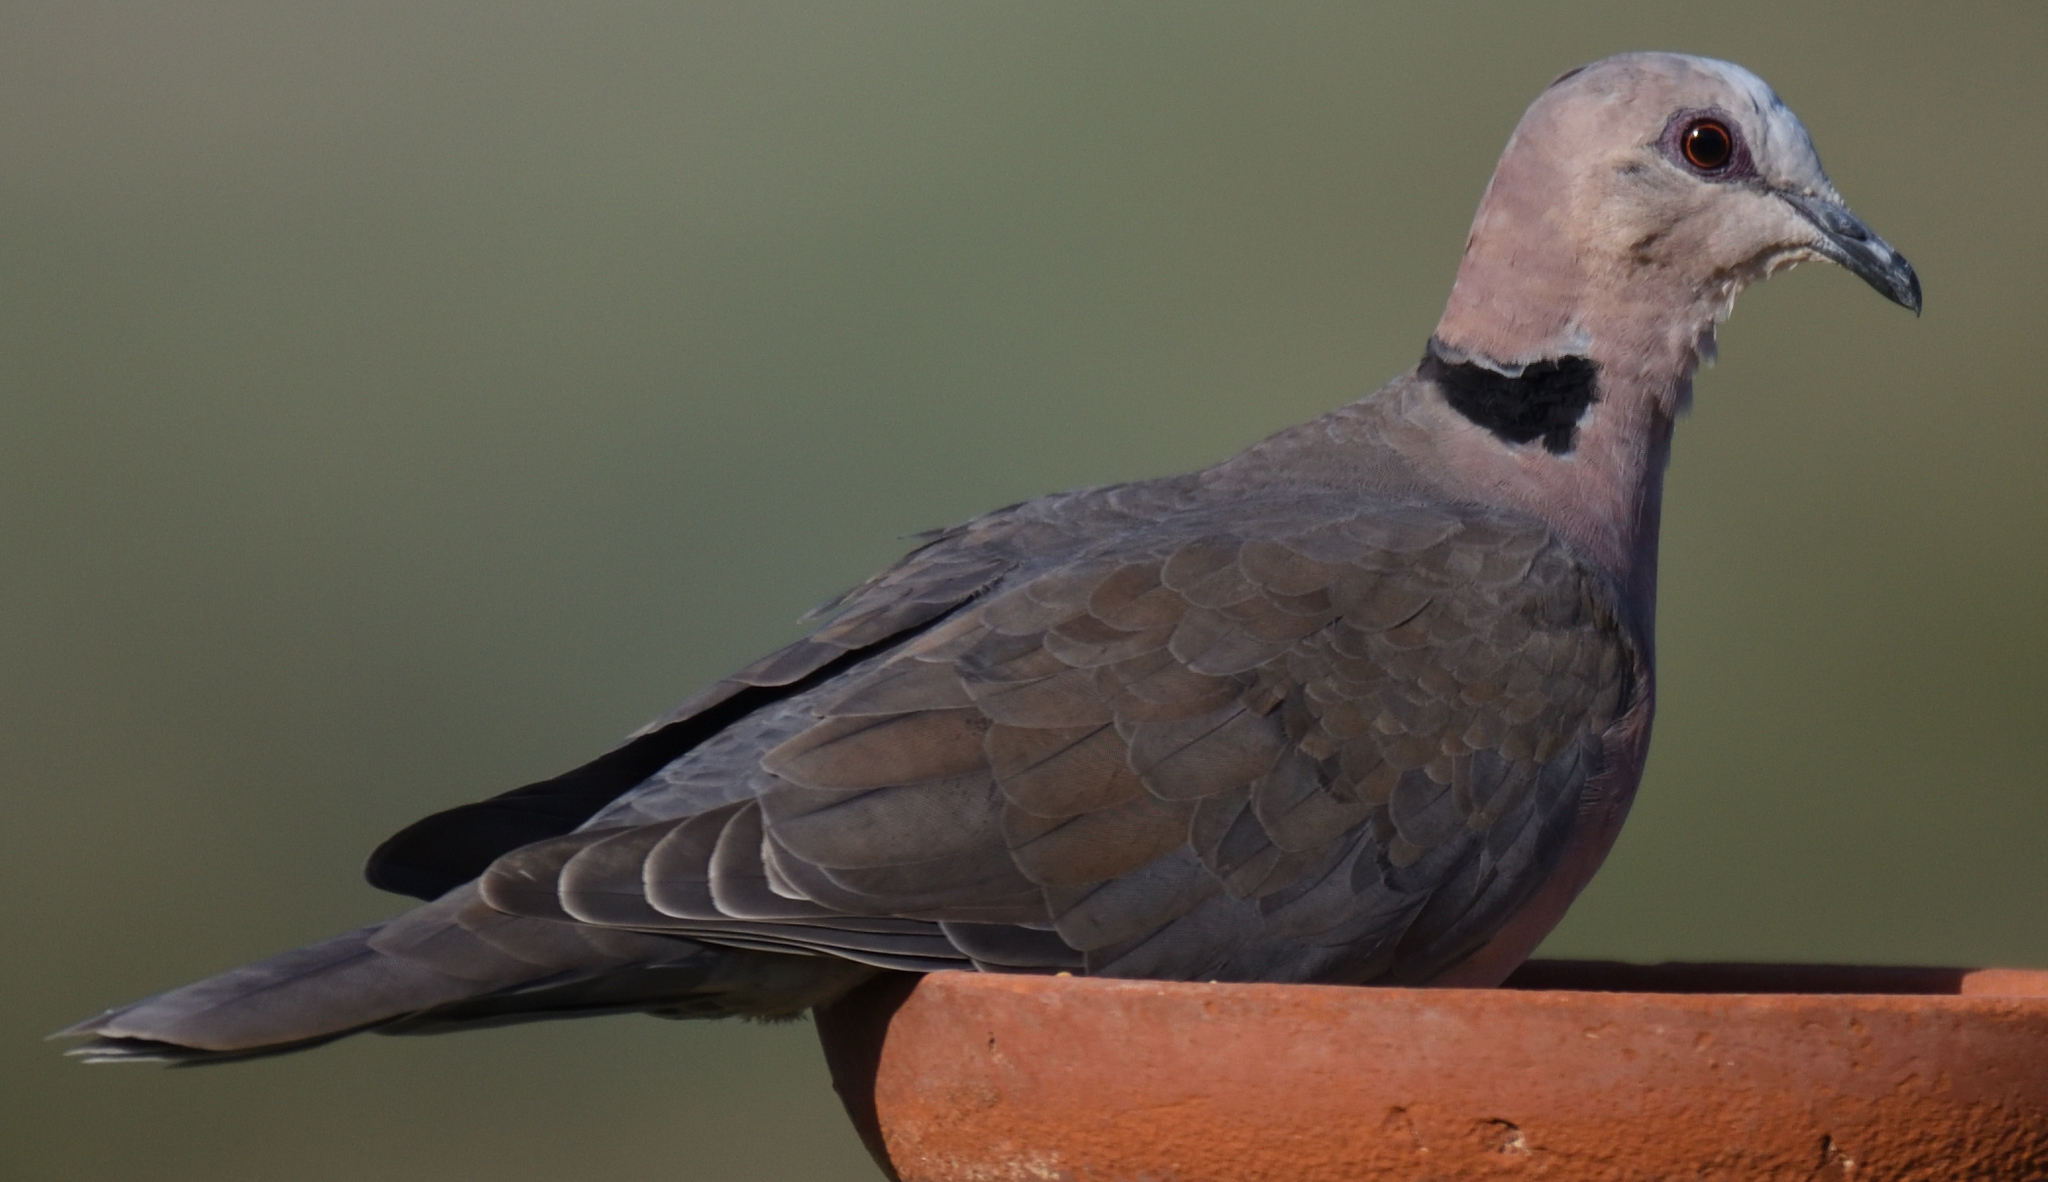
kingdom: Animalia
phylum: Chordata
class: Aves
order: Columbiformes
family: Columbidae
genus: Streptopelia
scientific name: Streptopelia semitorquata
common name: Red-eyed dove
